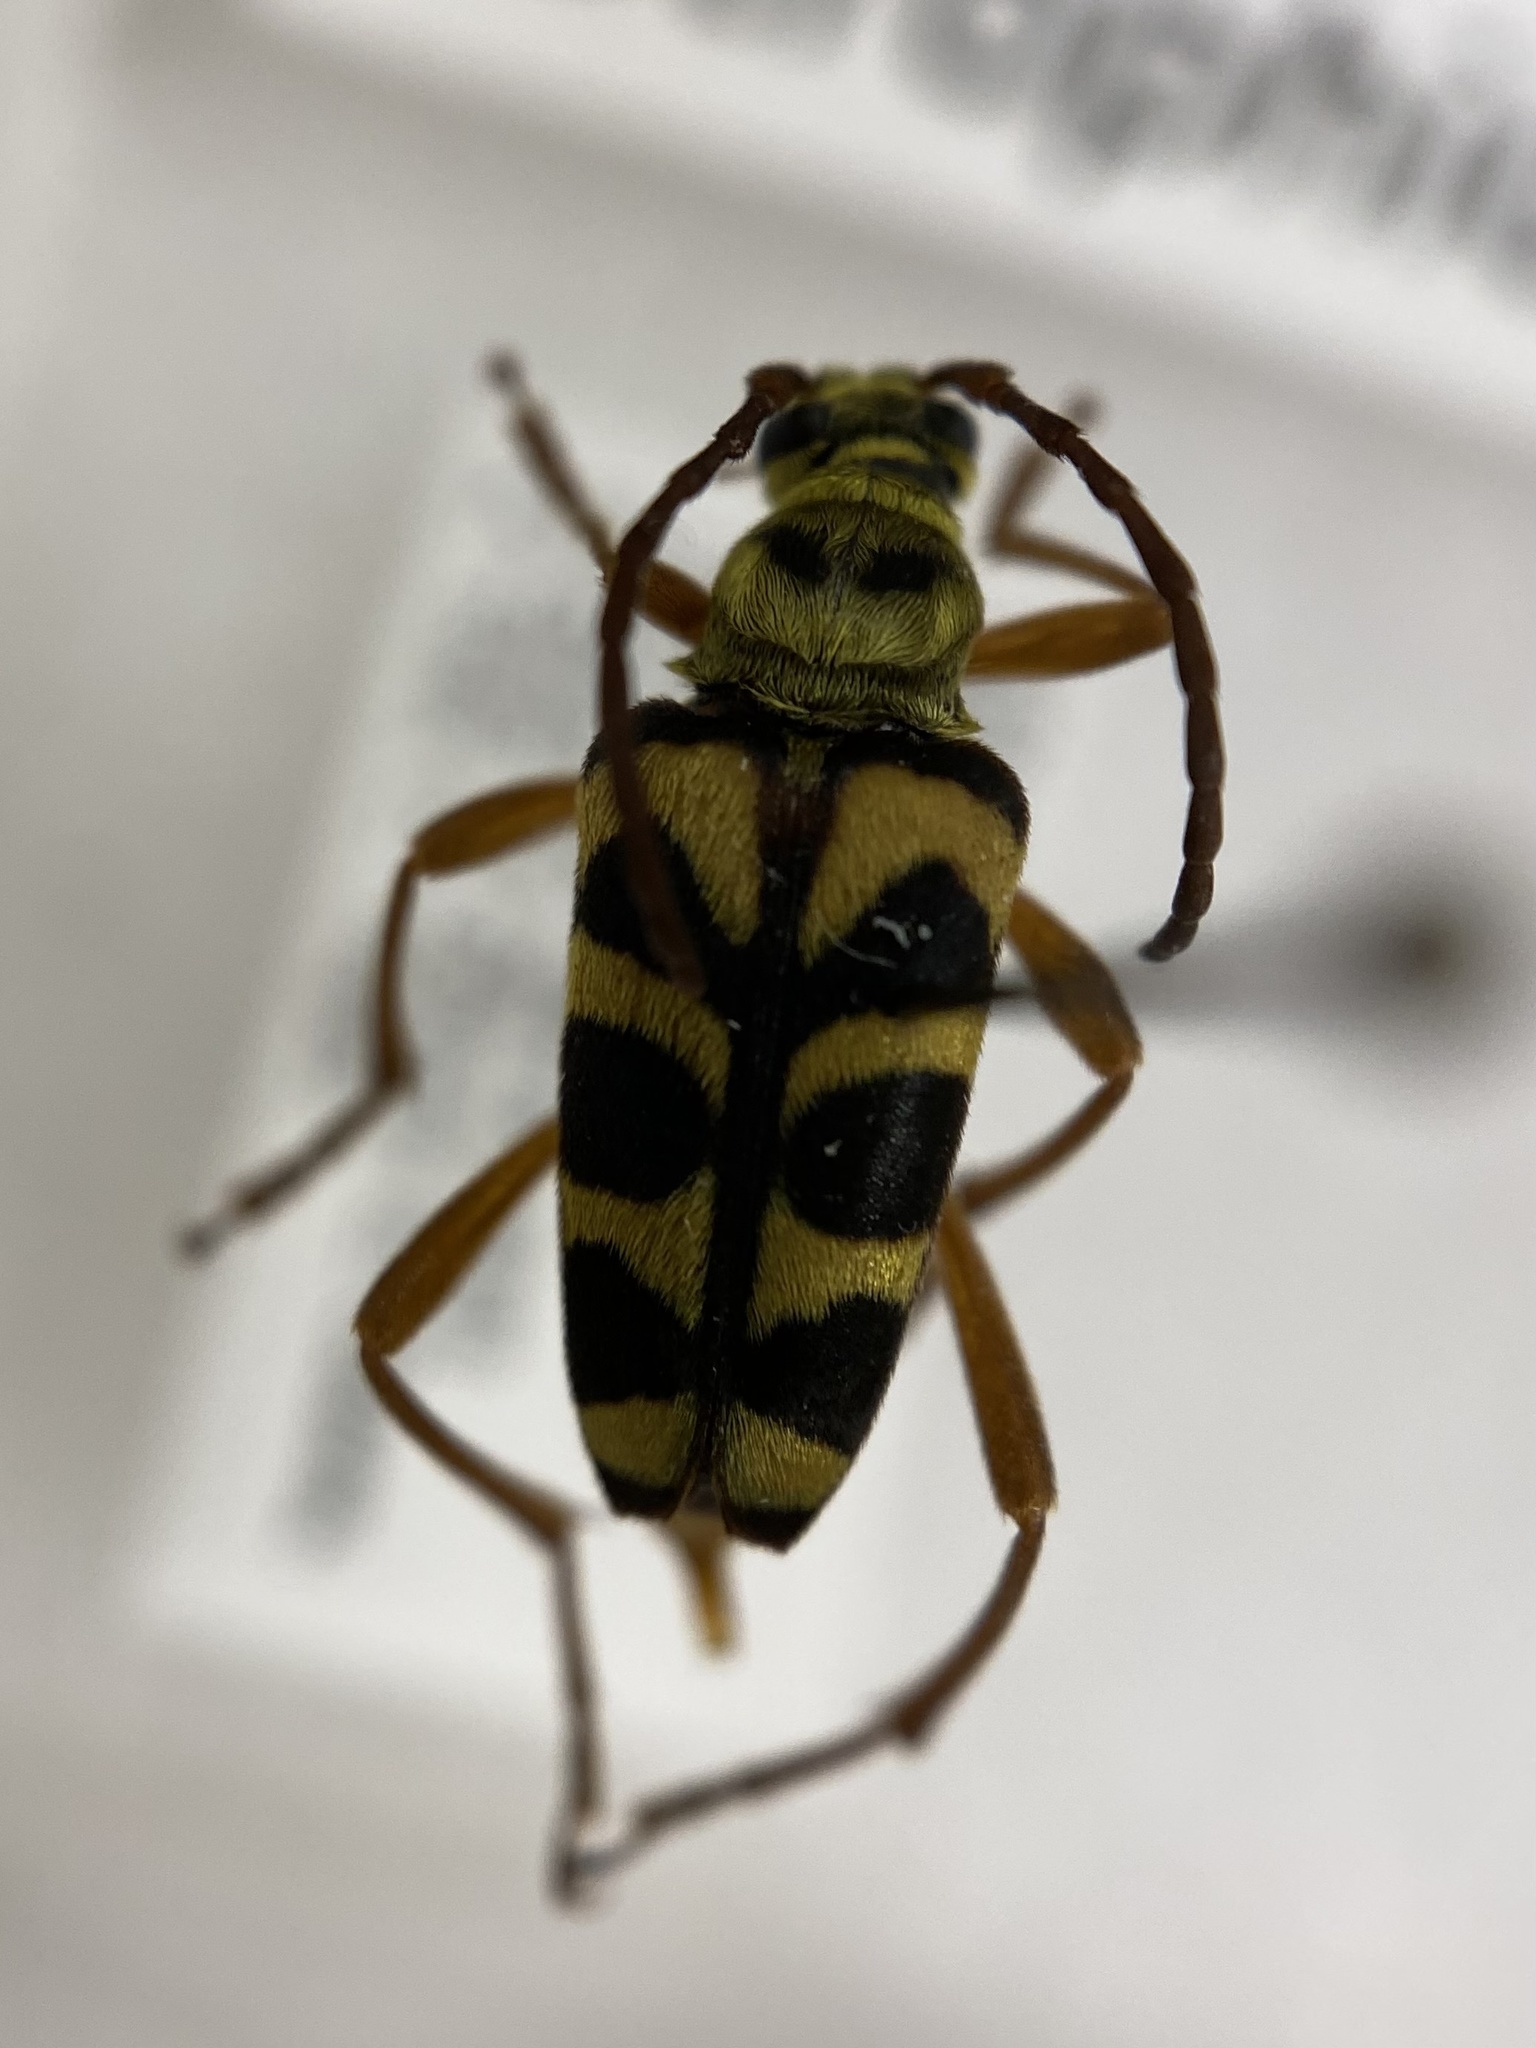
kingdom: Animalia
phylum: Arthropoda
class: Insecta
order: Coleoptera
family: Cerambycidae
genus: Strophiona
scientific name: Strophiona nitens
